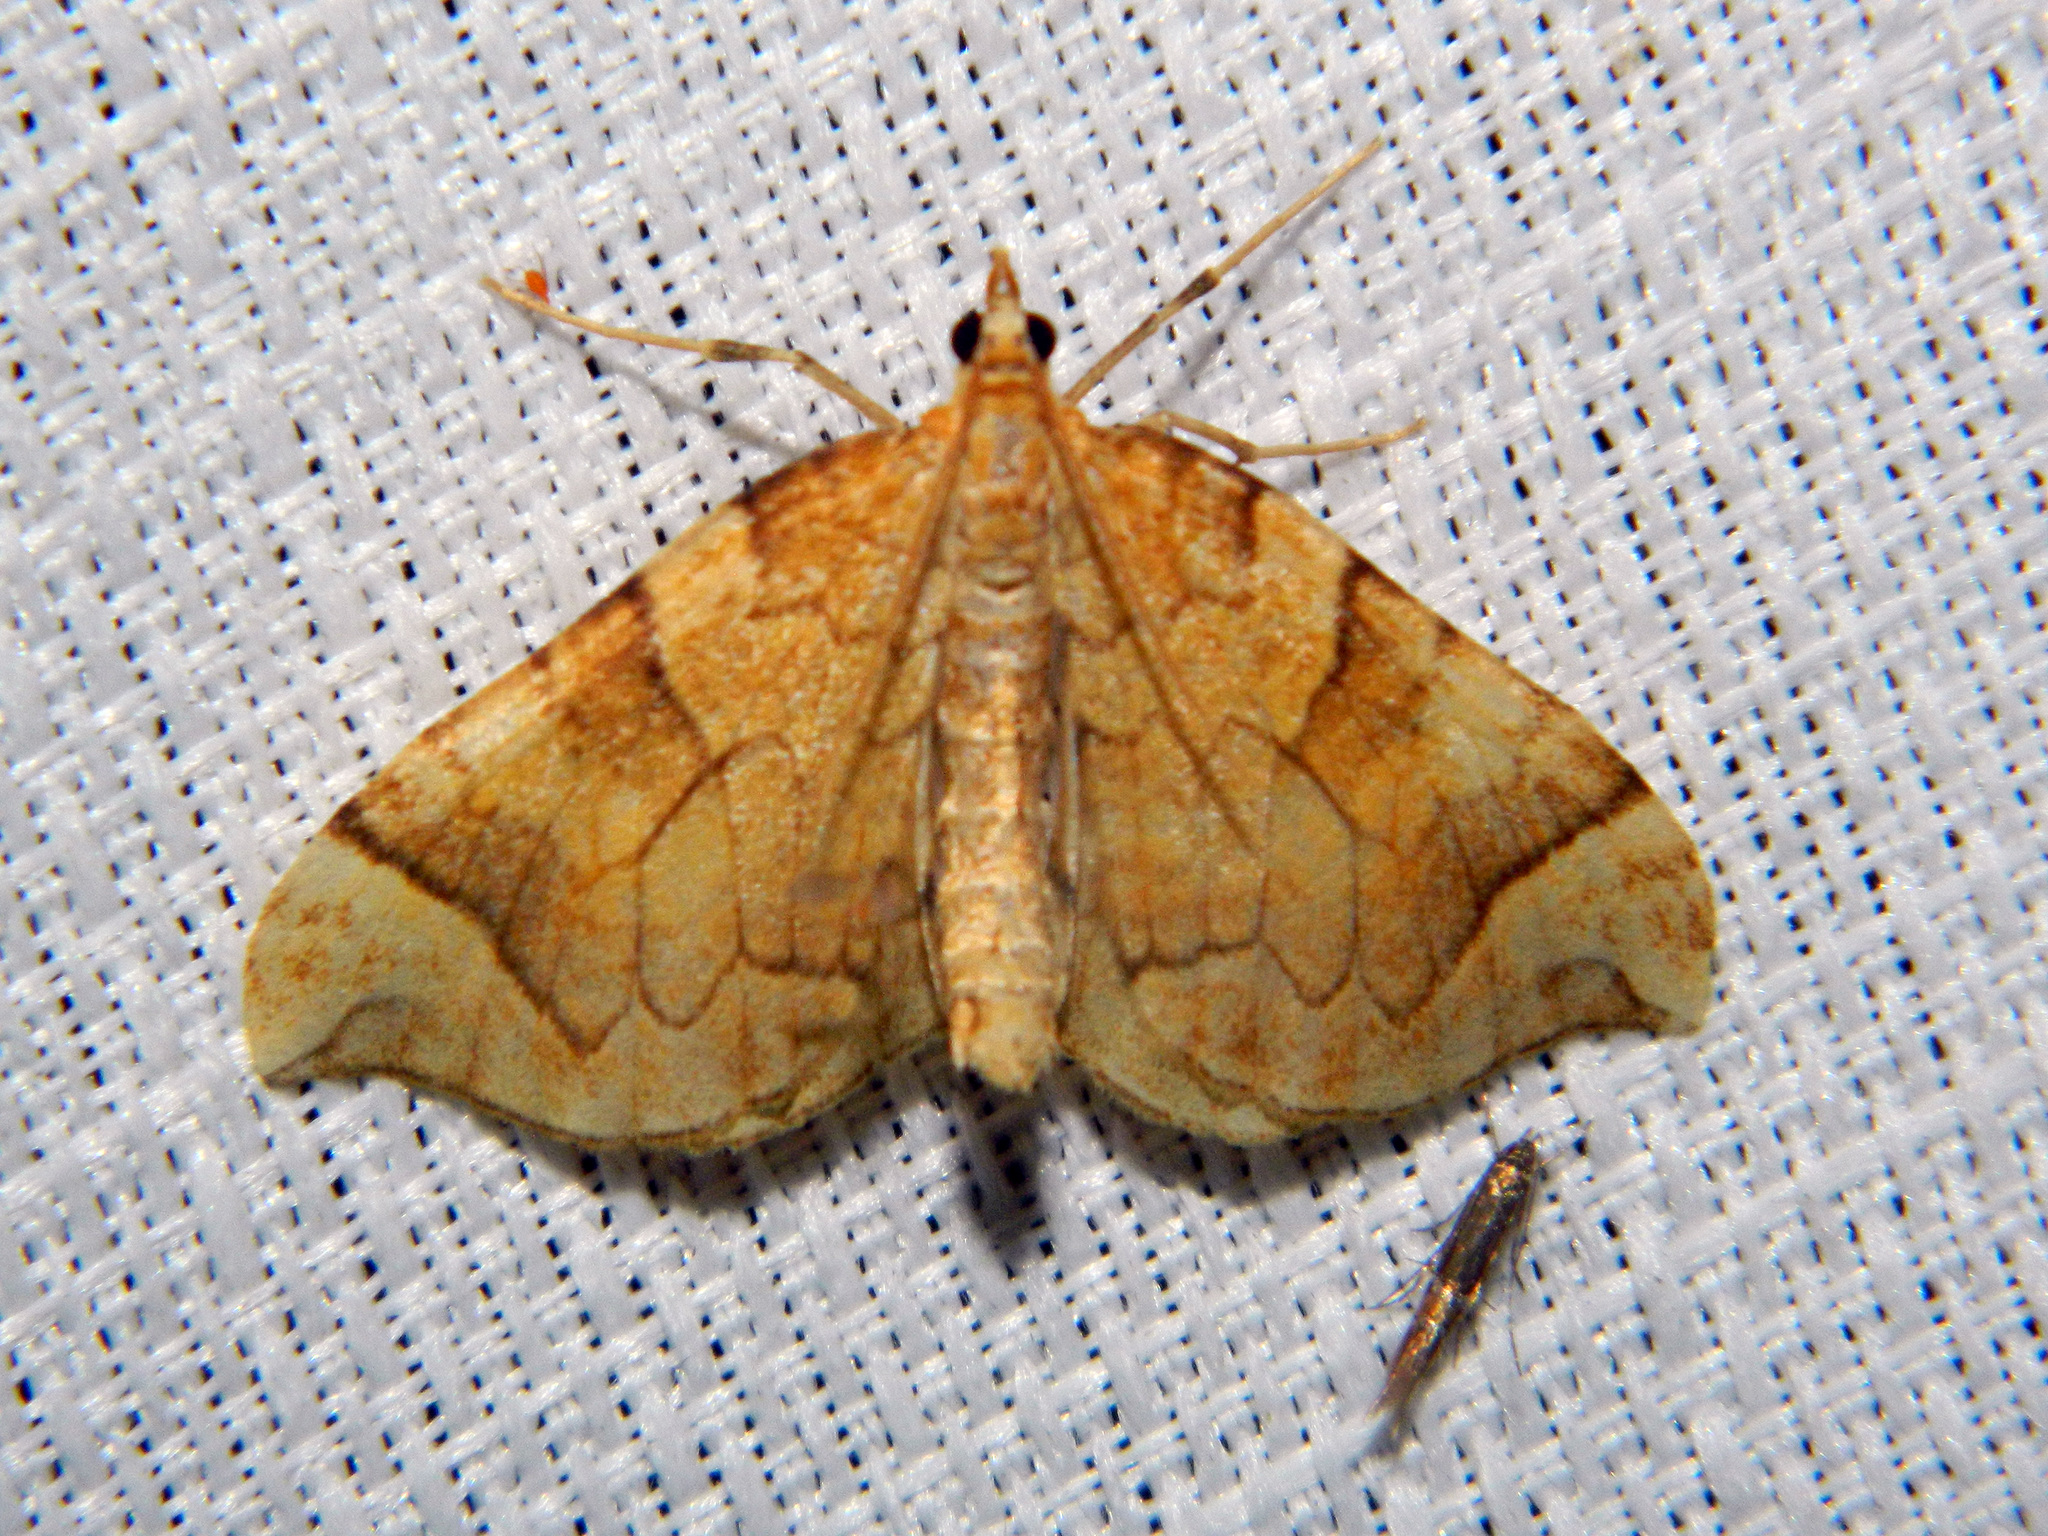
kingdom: Animalia
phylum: Arthropoda
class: Insecta
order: Lepidoptera
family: Geometridae
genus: Eulithis
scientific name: Eulithis propulsata
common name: Currant eulithis moth
